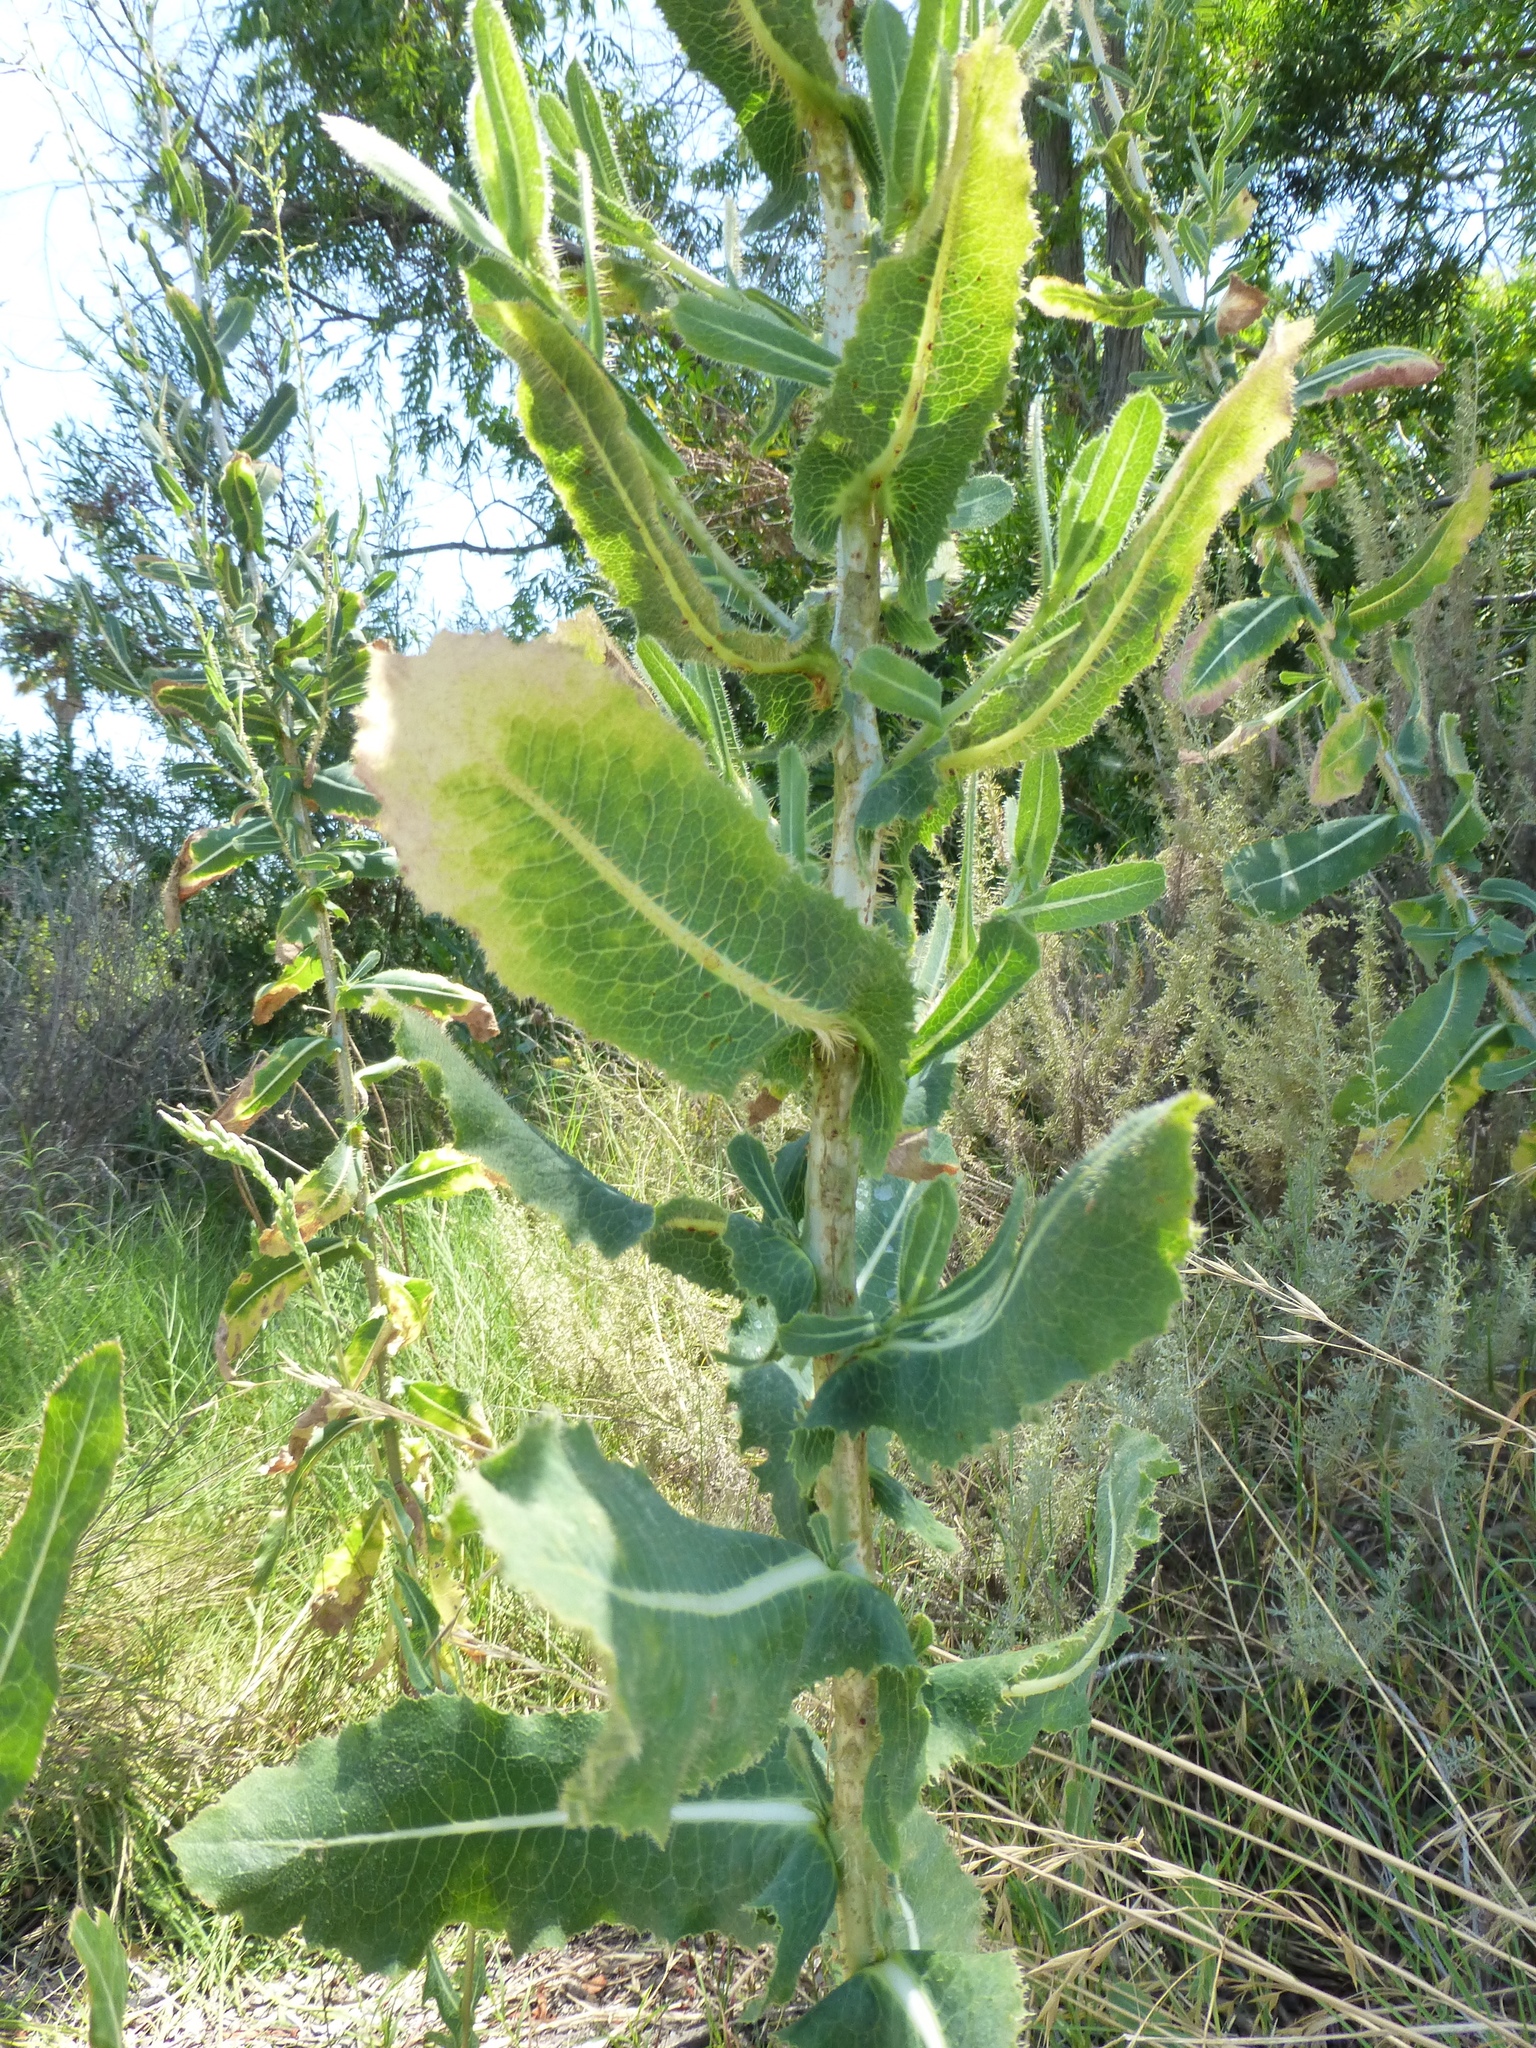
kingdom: Plantae
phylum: Tracheophyta
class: Magnoliopsida
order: Asterales
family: Asteraceae
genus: Lactuca
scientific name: Lactuca serriola
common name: Prickly lettuce
